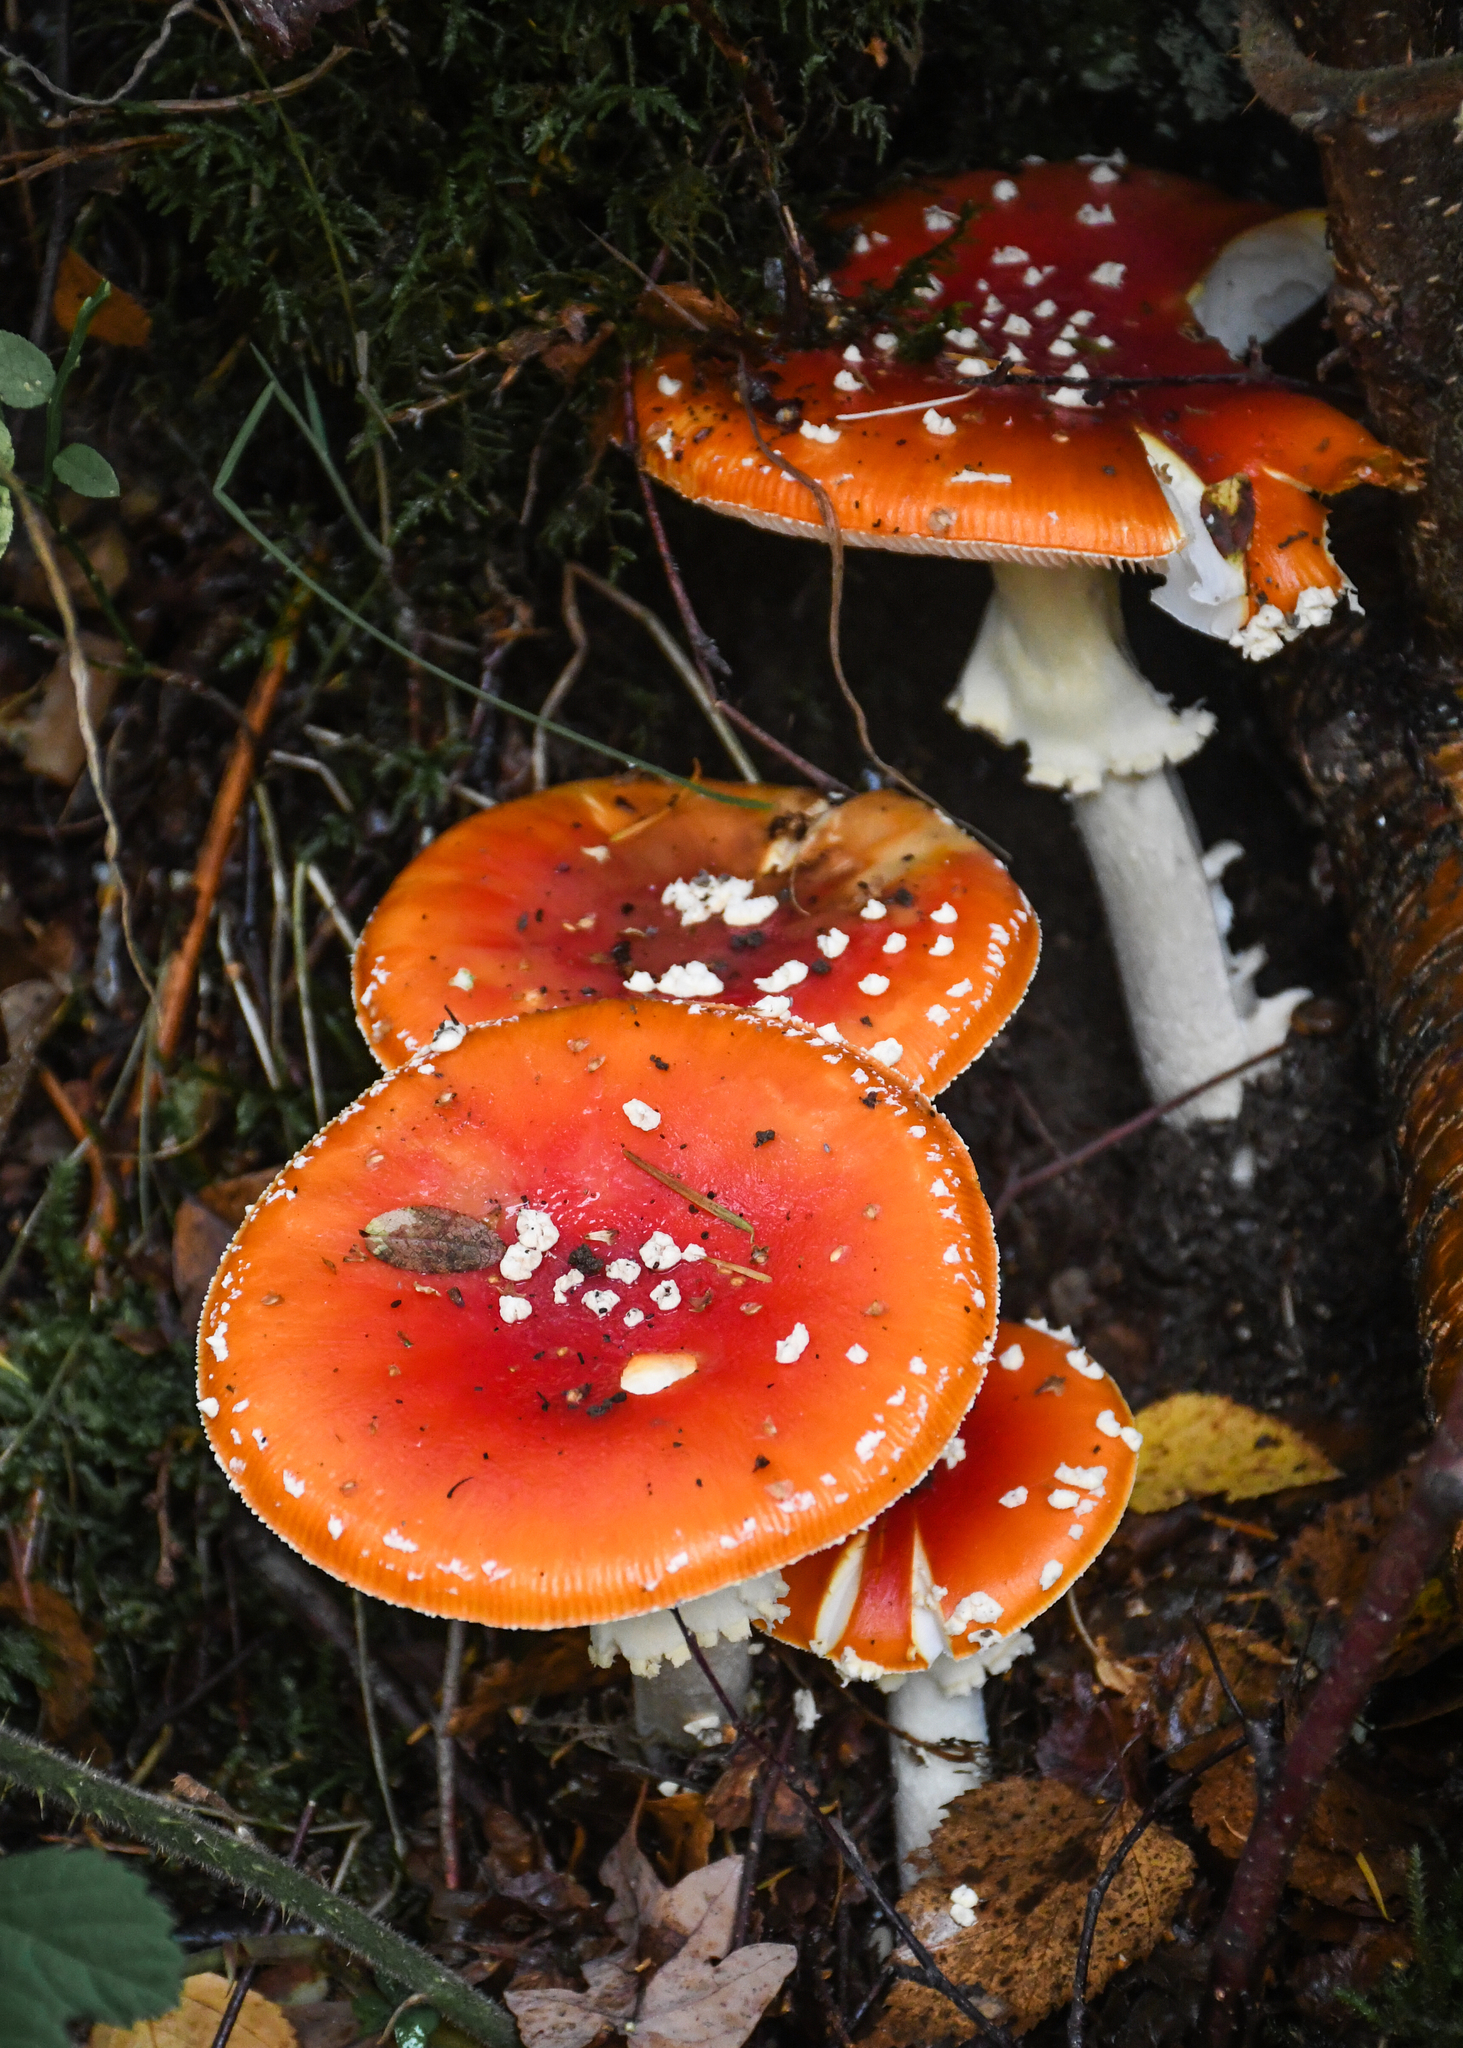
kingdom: Fungi
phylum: Basidiomycota
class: Agaricomycetes
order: Agaricales
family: Amanitaceae
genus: Amanita
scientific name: Amanita muscaria
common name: Fly agaric
